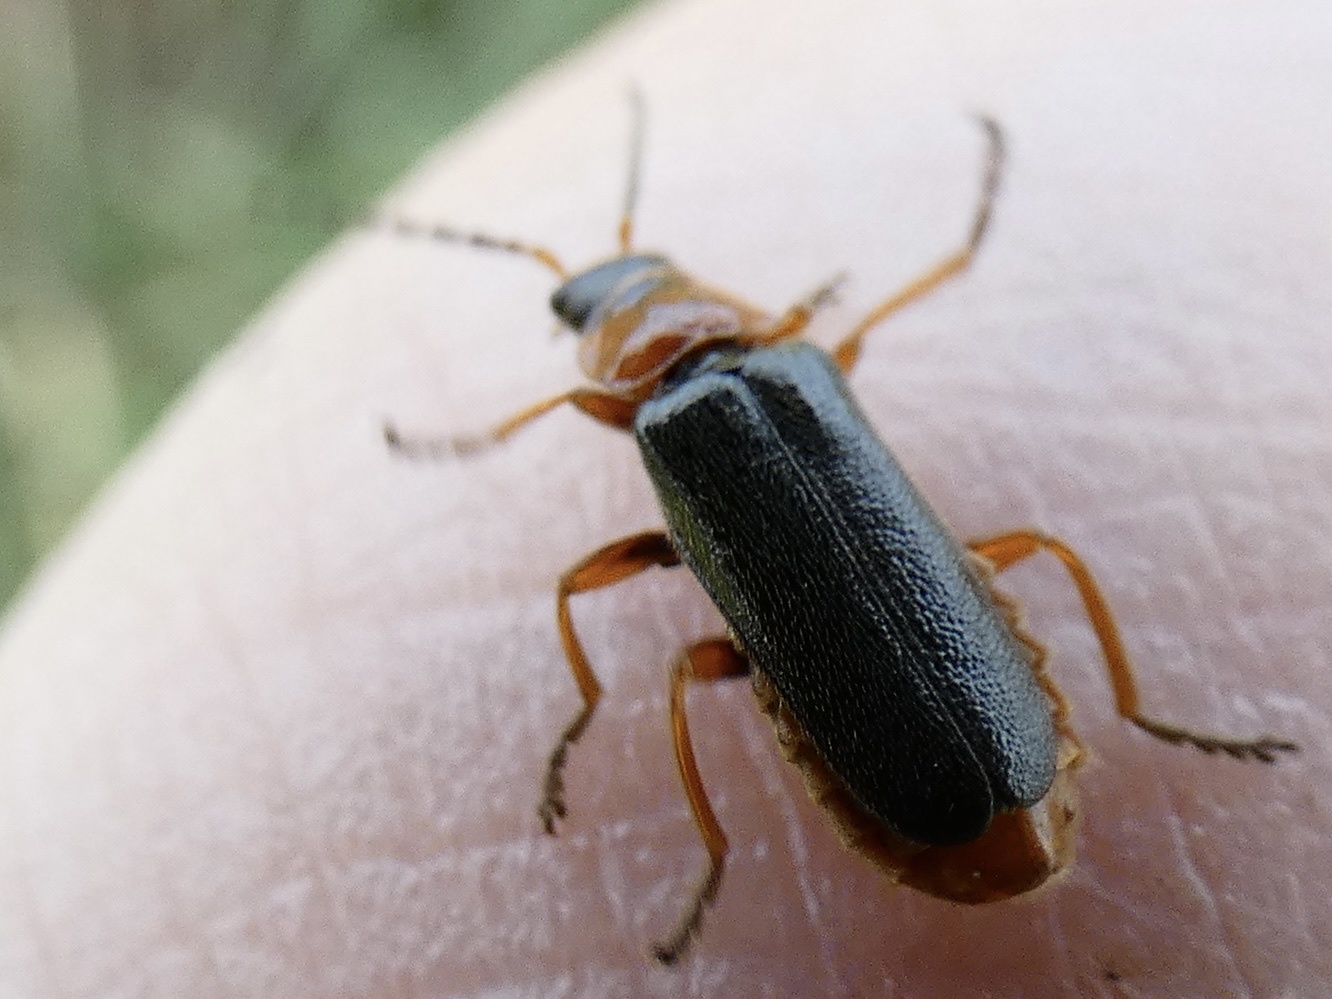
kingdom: Animalia
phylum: Arthropoda
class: Insecta
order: Coleoptera
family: Cantharidae
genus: Cantharis
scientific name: Cantharis flavilabris
